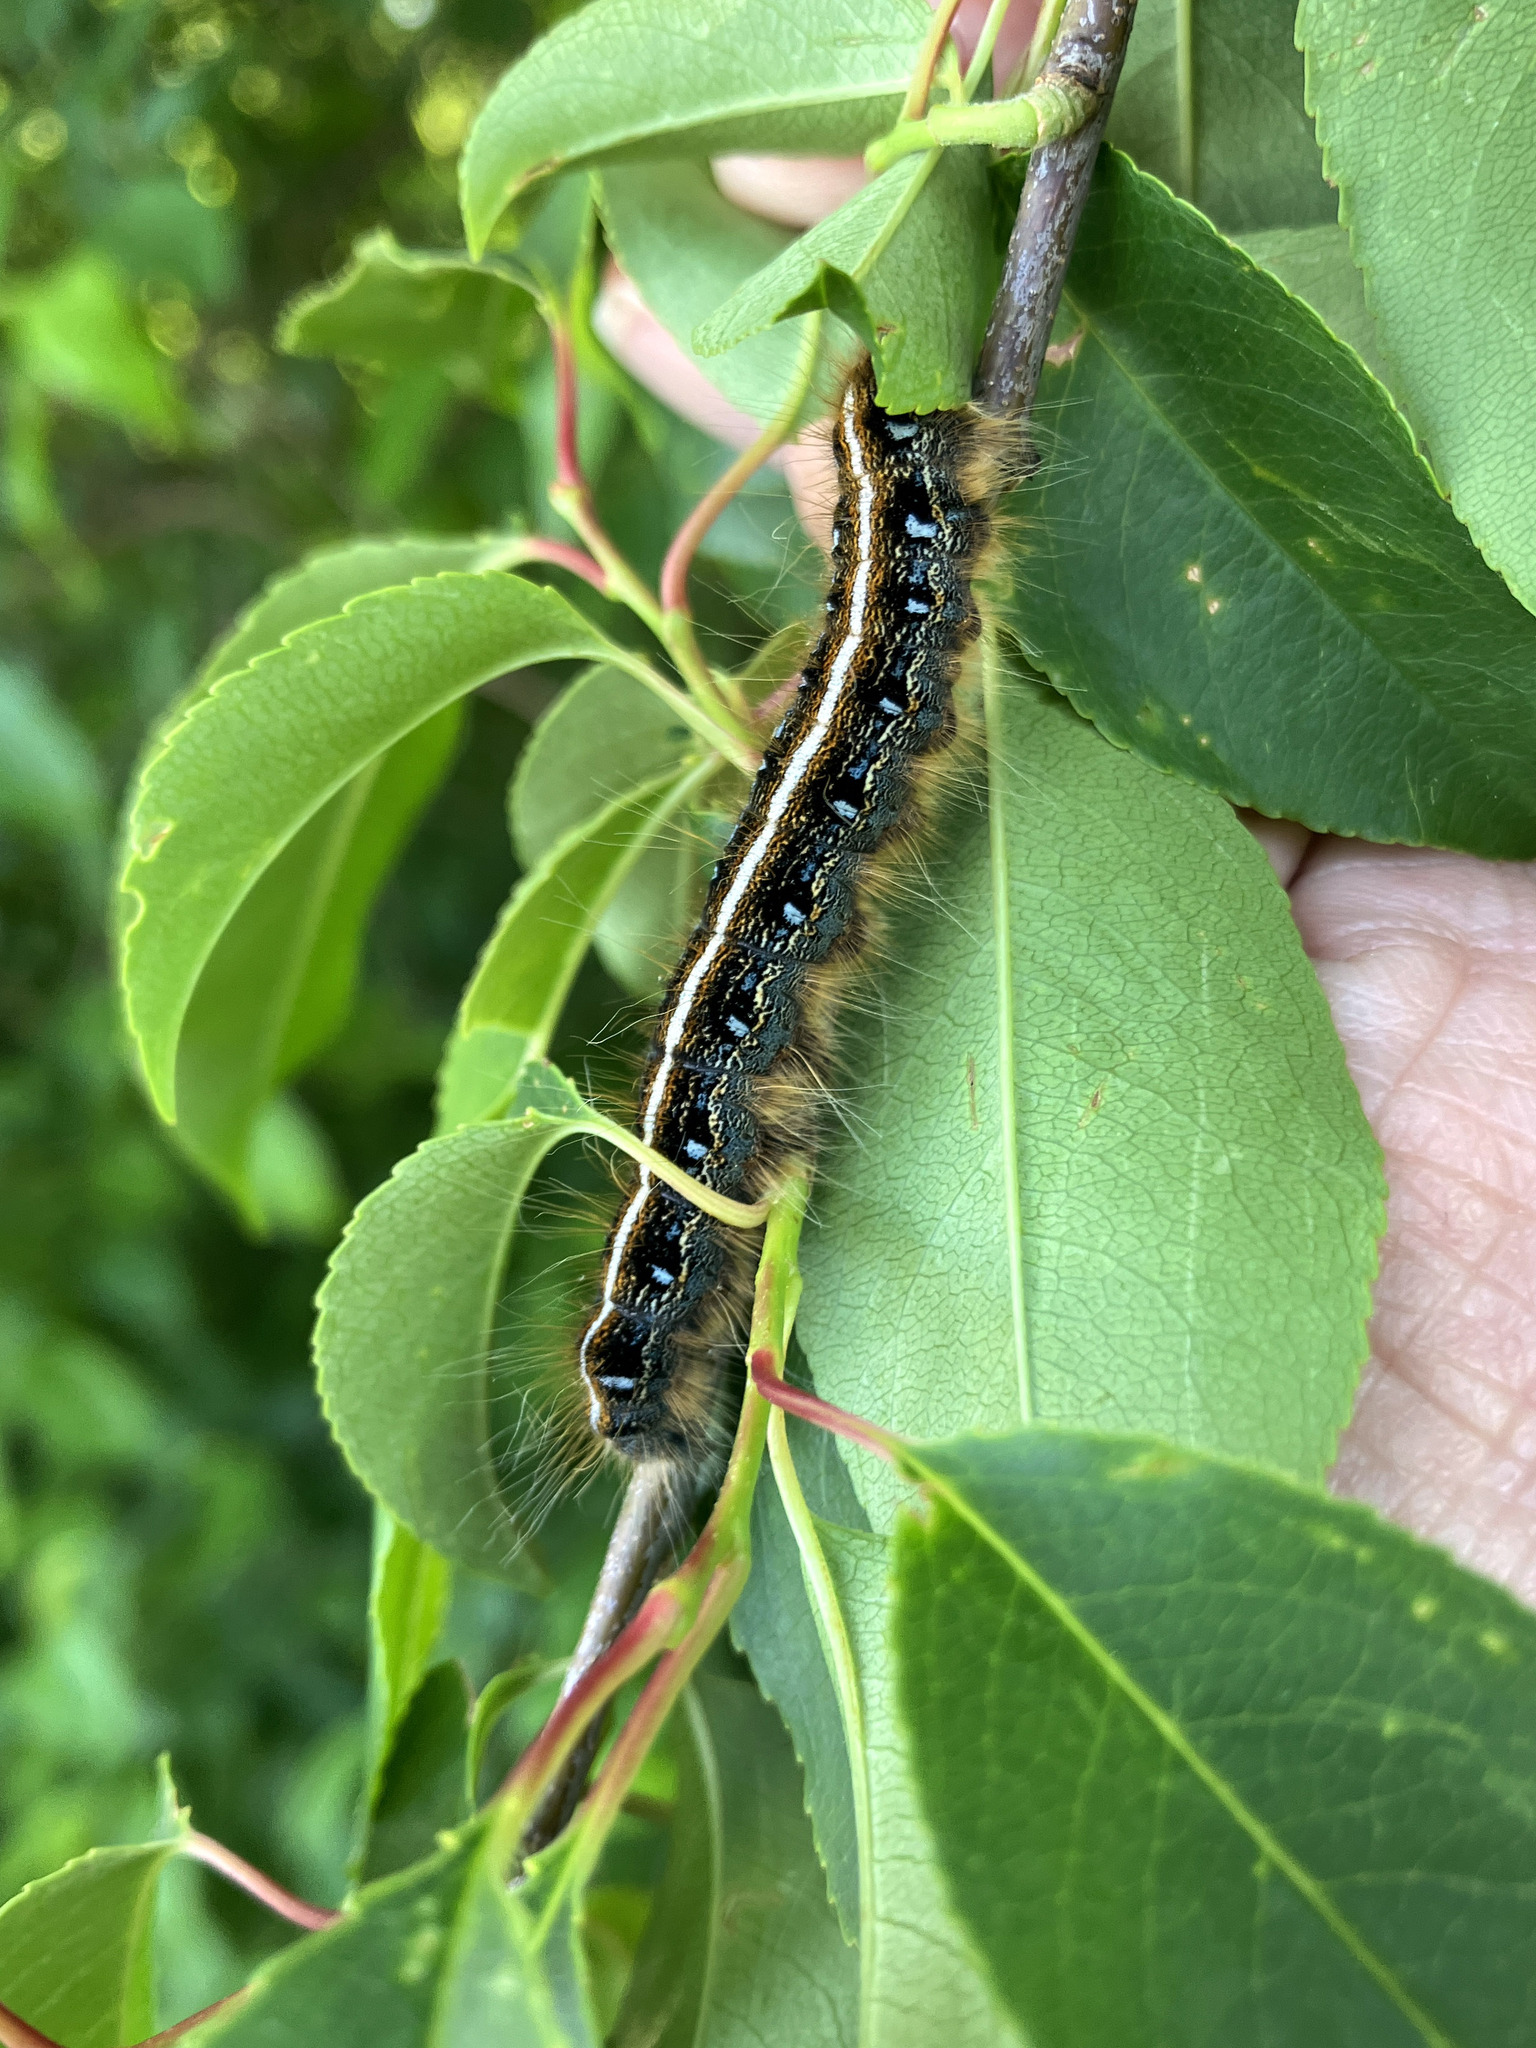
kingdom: Animalia
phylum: Arthropoda
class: Insecta
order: Lepidoptera
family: Lasiocampidae
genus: Malacosoma
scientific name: Malacosoma americana
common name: Eastern tent caterpillar moth
